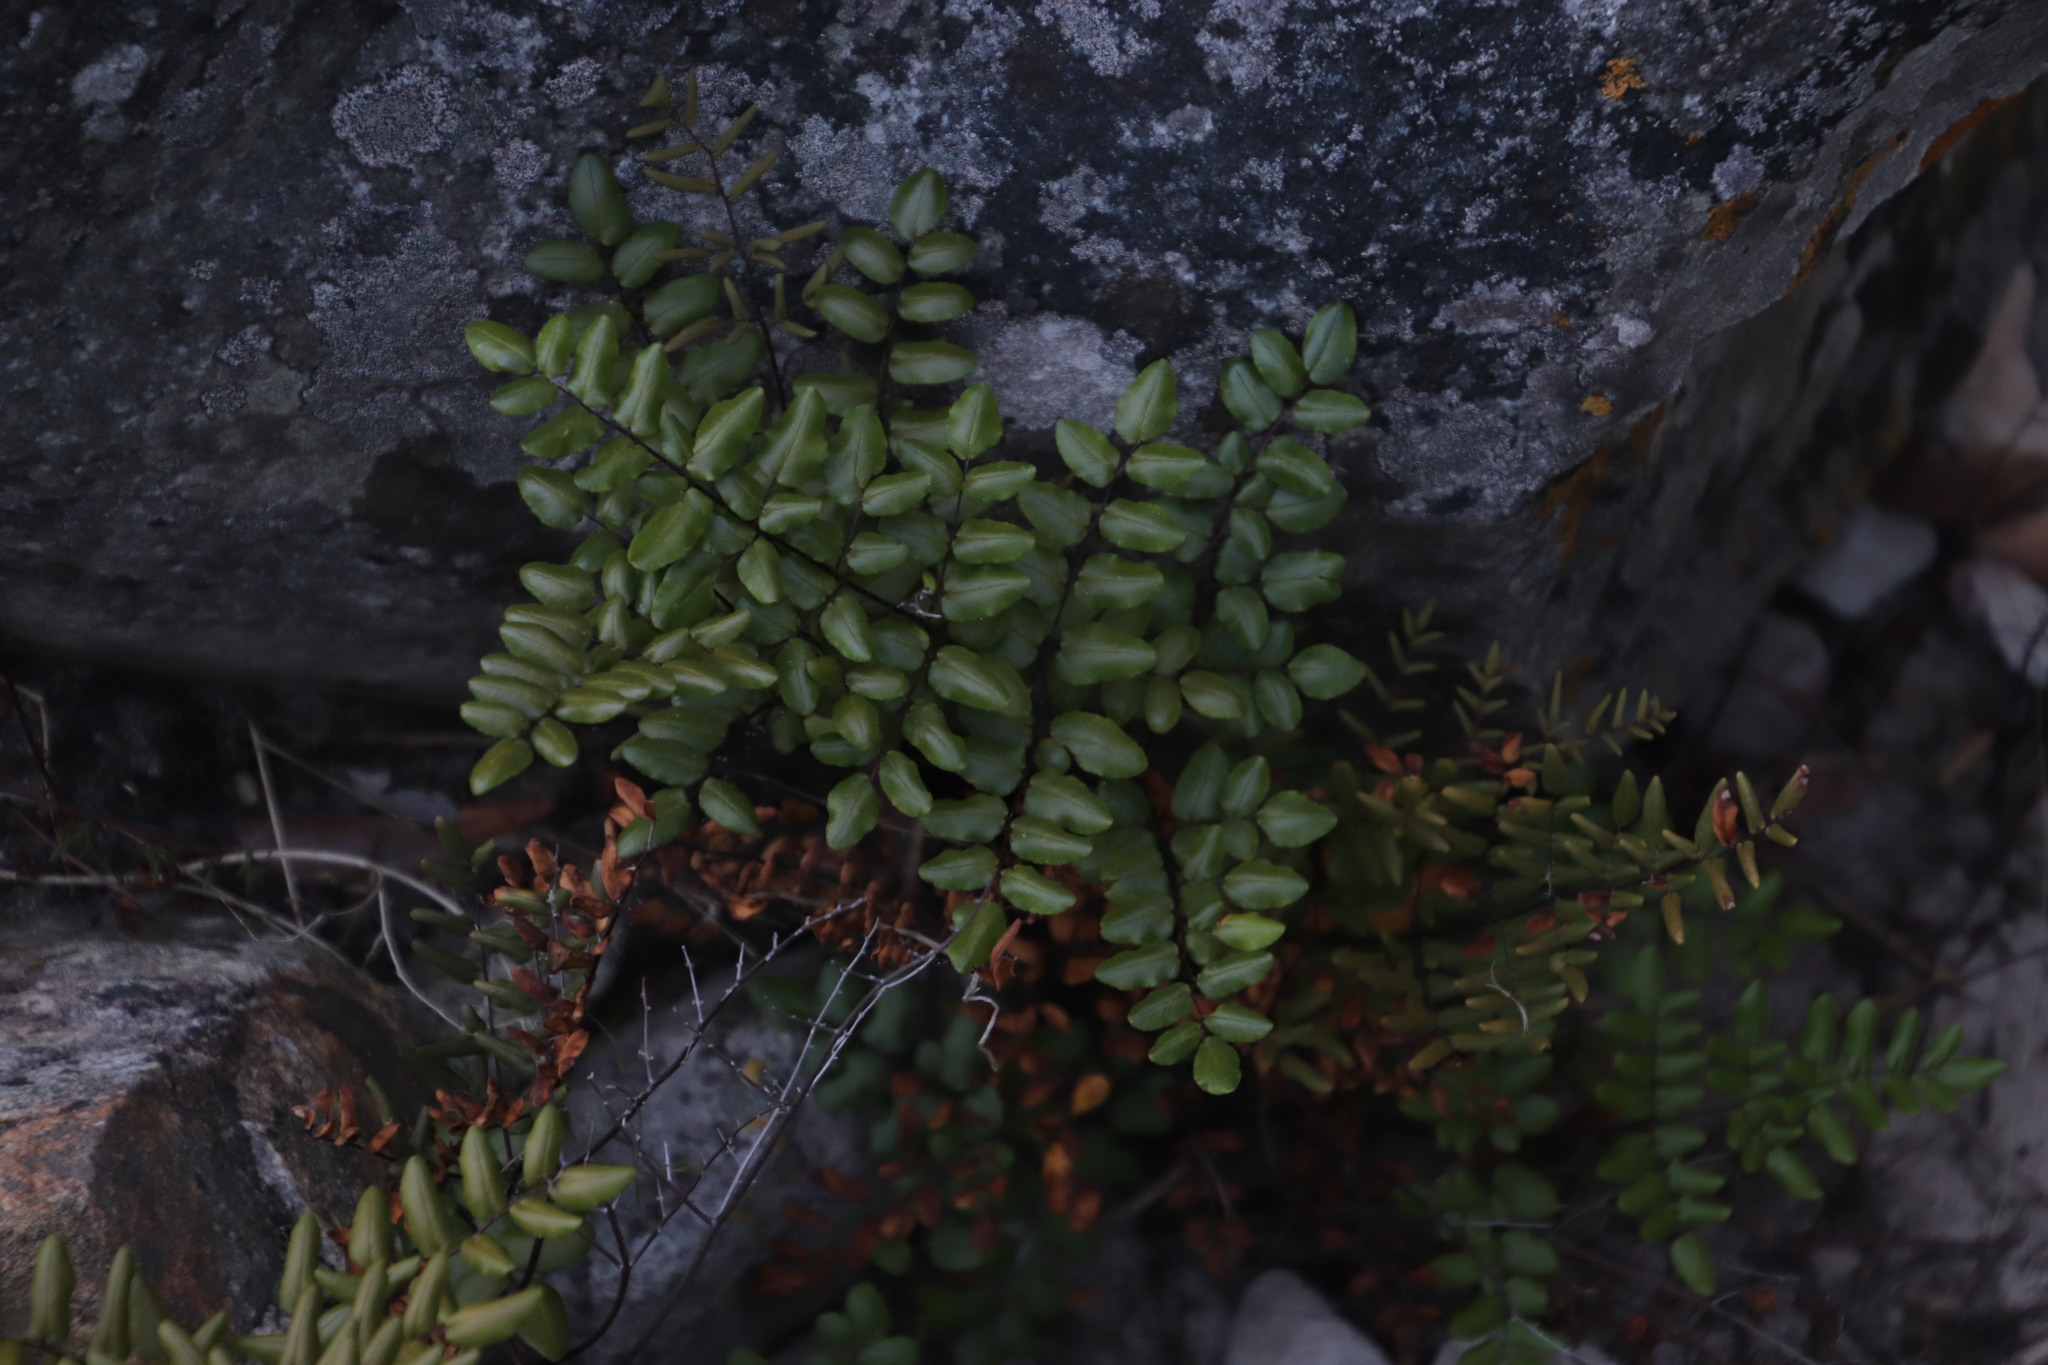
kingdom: Plantae
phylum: Tracheophyta
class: Polypodiopsida
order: Polypodiales
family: Pteridaceae
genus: Pellaea
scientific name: Pellaea pteroides
